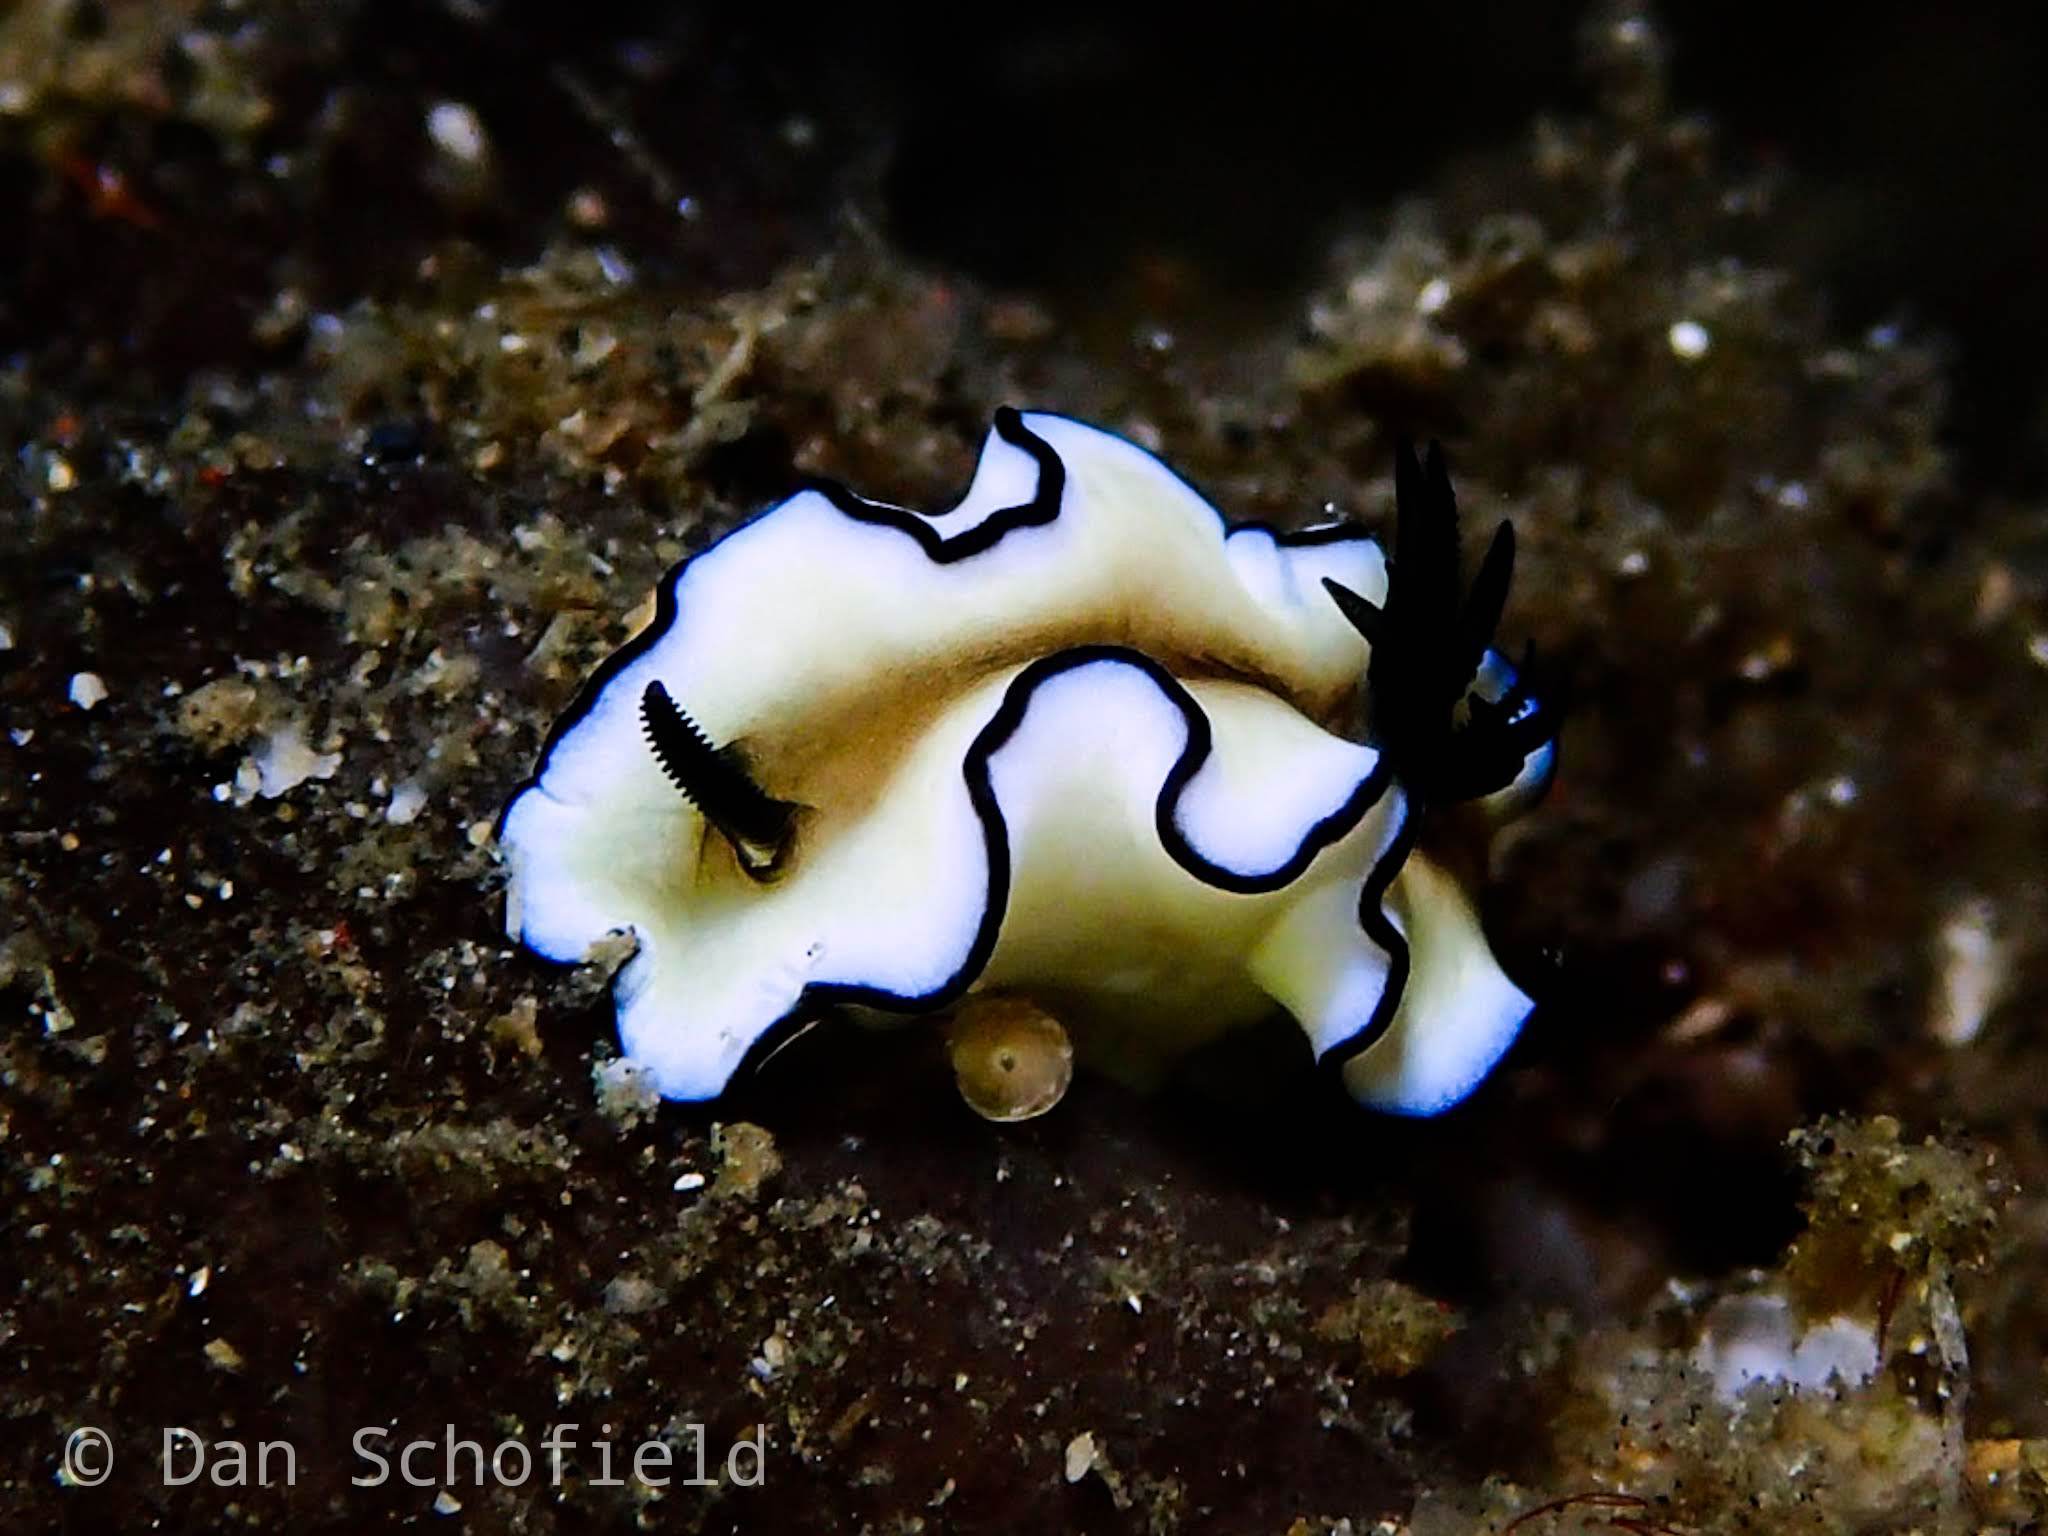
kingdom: Animalia
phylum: Mollusca
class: Gastropoda
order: Nudibranchia
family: Chromodorididae
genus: Doriprismatica
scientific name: Doriprismatica atromarginata
